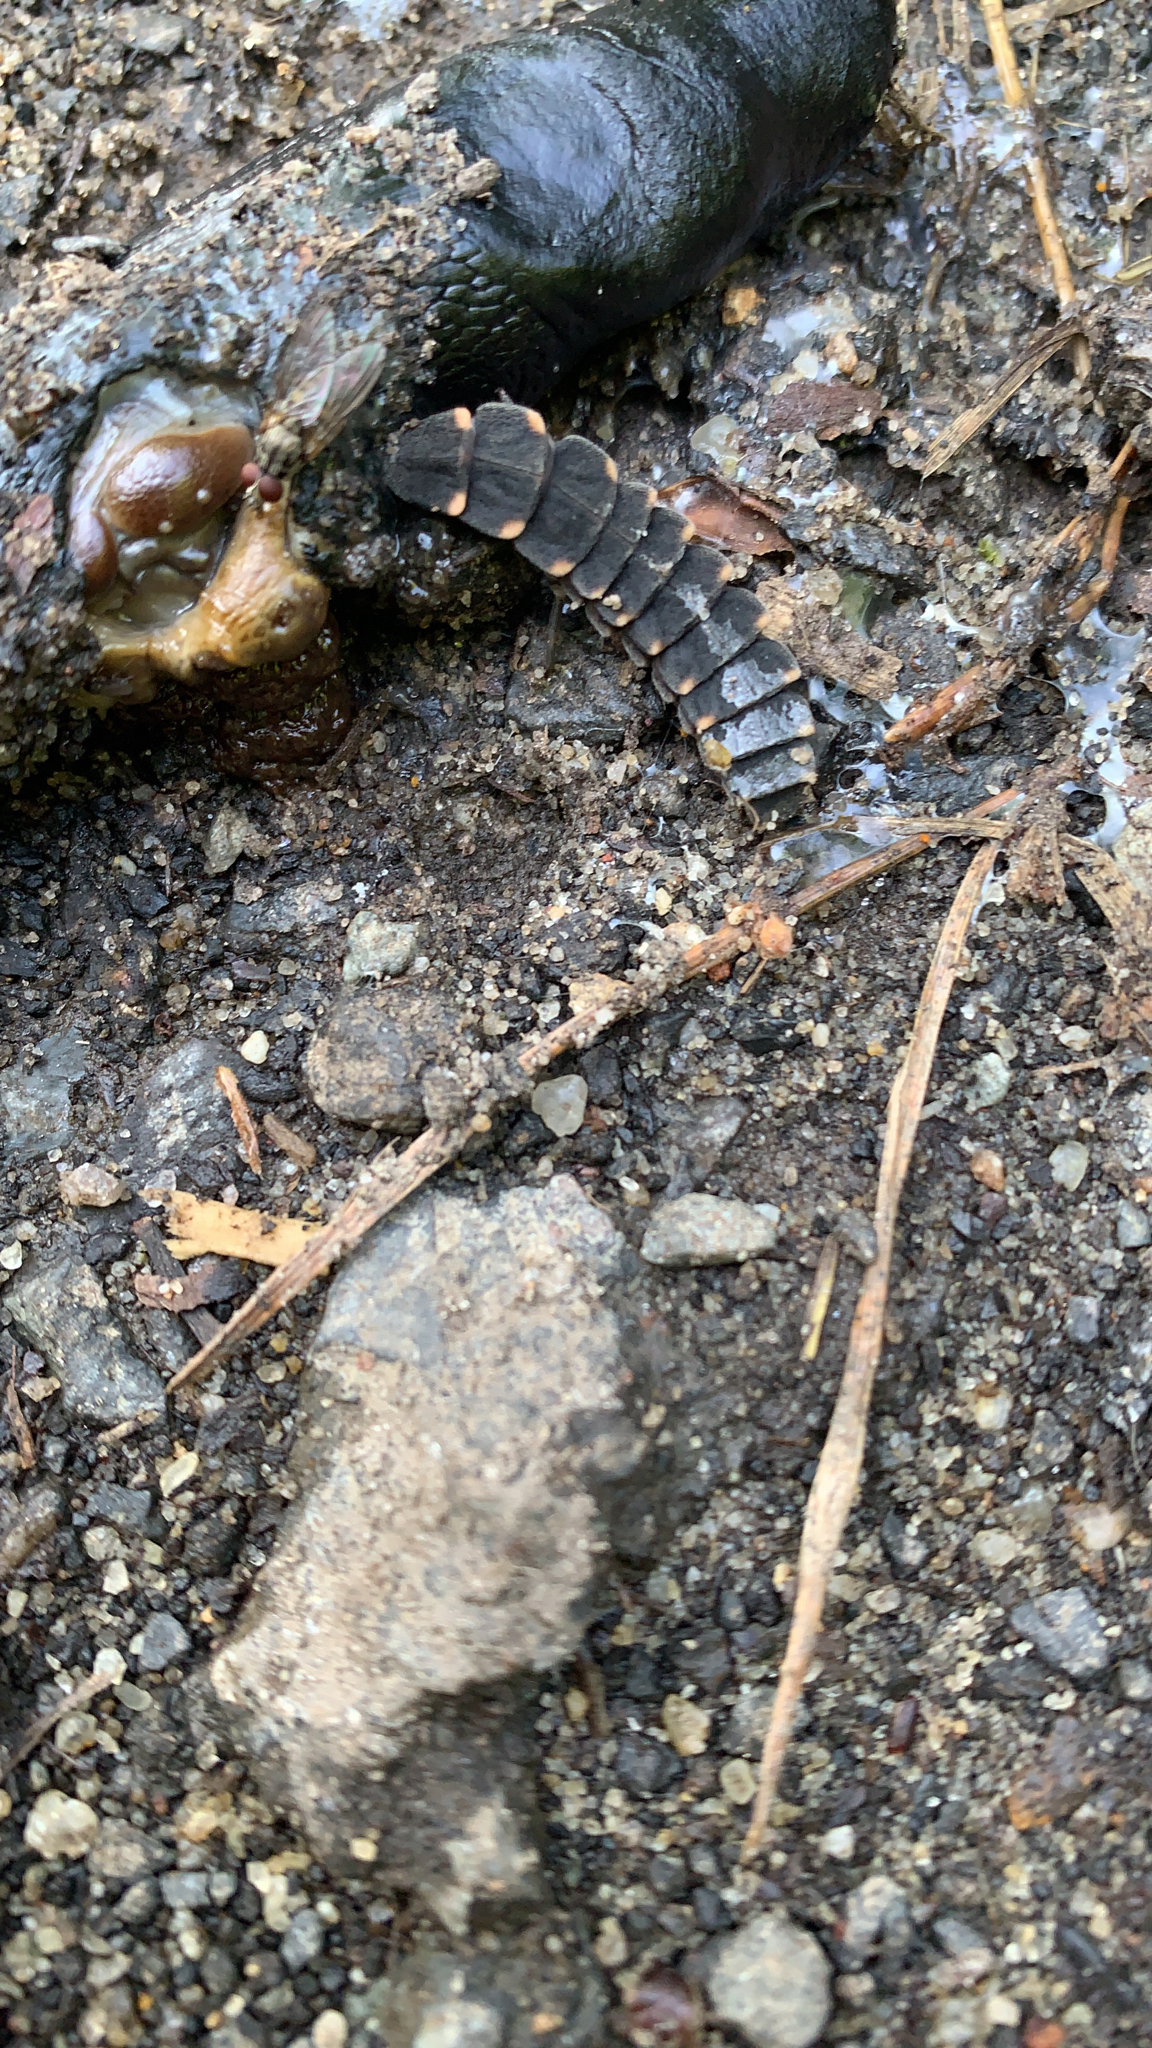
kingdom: Animalia
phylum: Arthropoda
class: Insecta
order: Coleoptera
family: Lampyridae
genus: Lampyris
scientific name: Lampyris noctiluca
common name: Glow-worm
